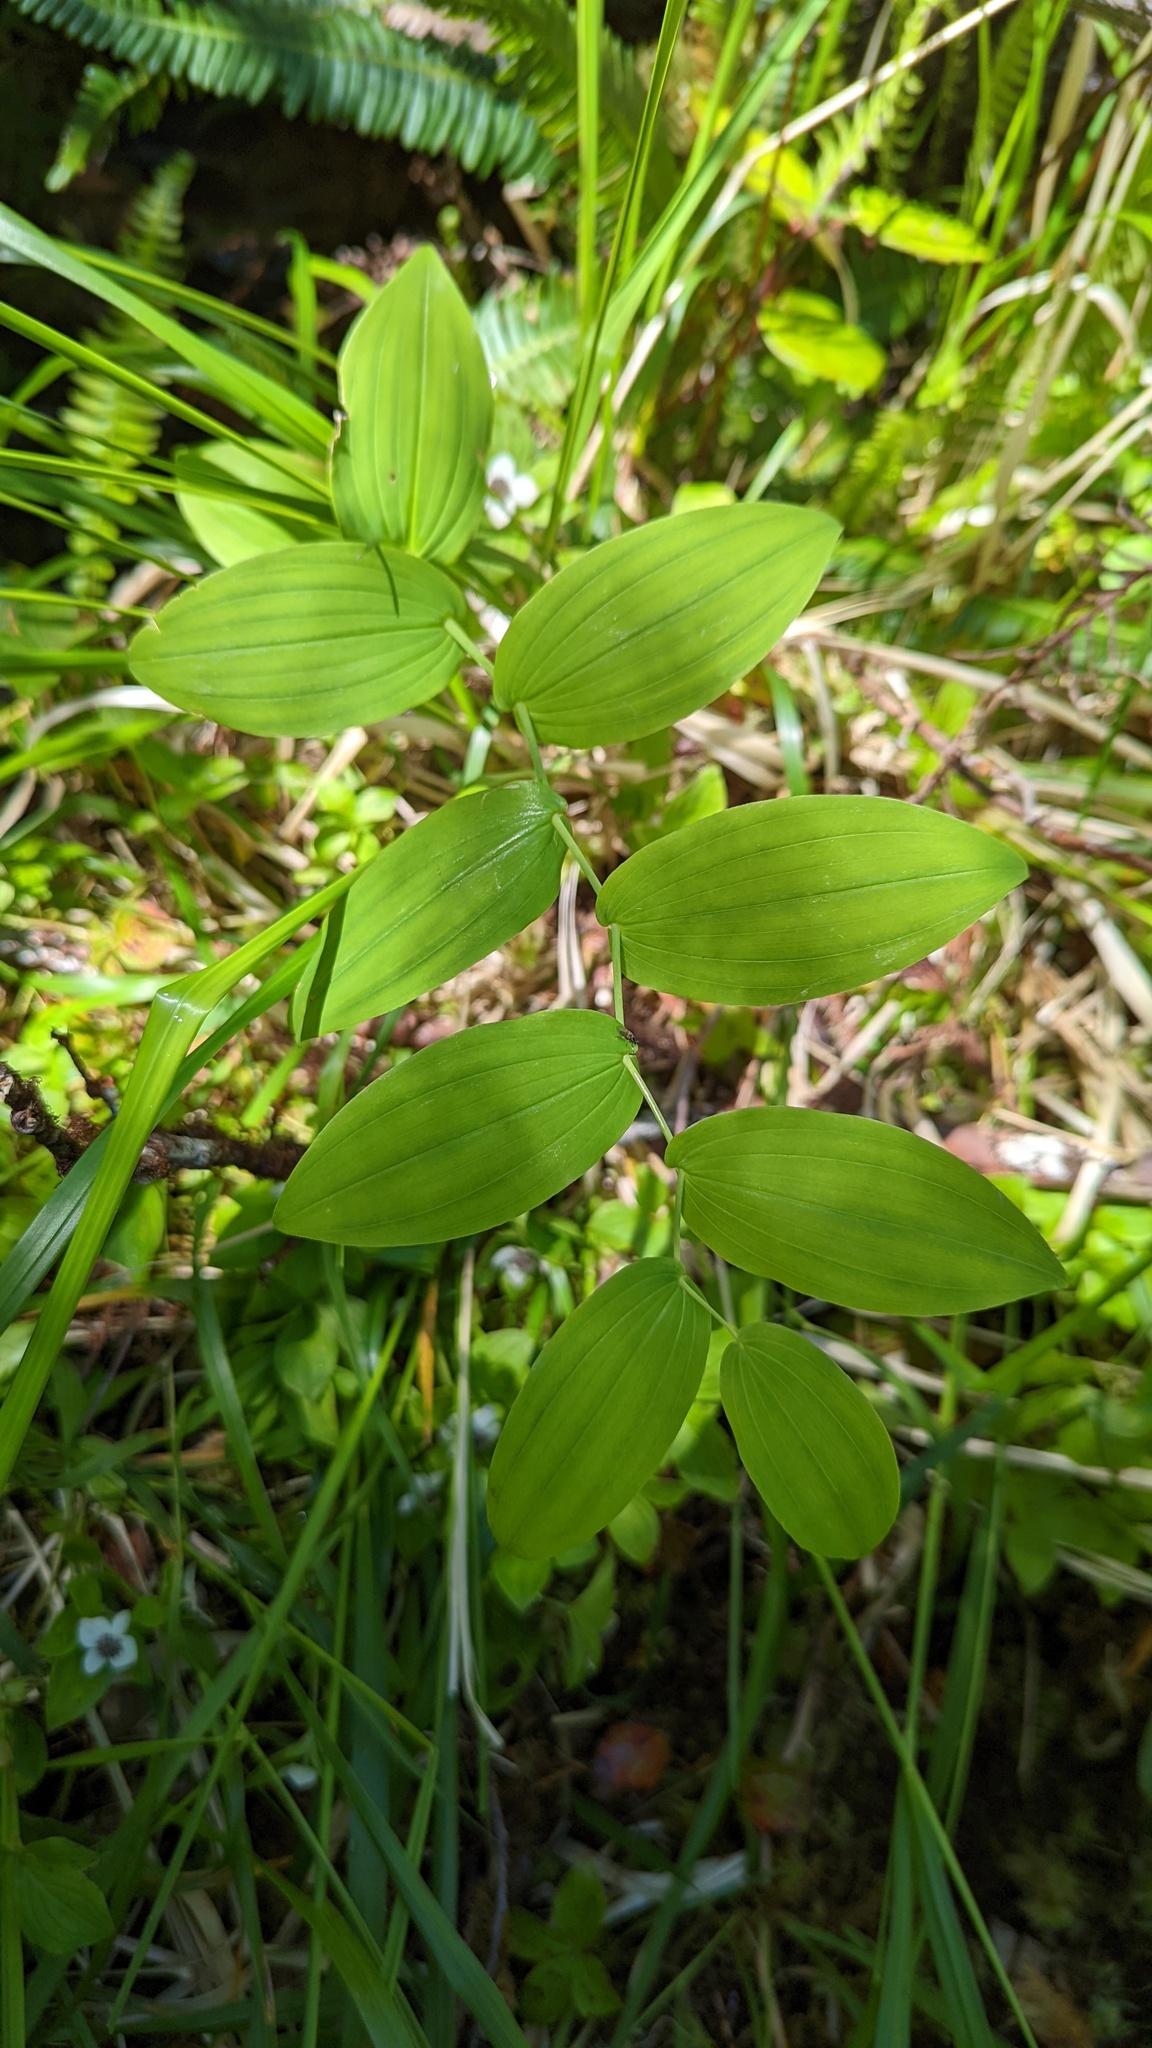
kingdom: Plantae
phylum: Tracheophyta
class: Liliopsida
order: Liliales
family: Liliaceae
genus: Streptopus
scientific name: Streptopus amplexifolius
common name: Clasp twisted stalk
